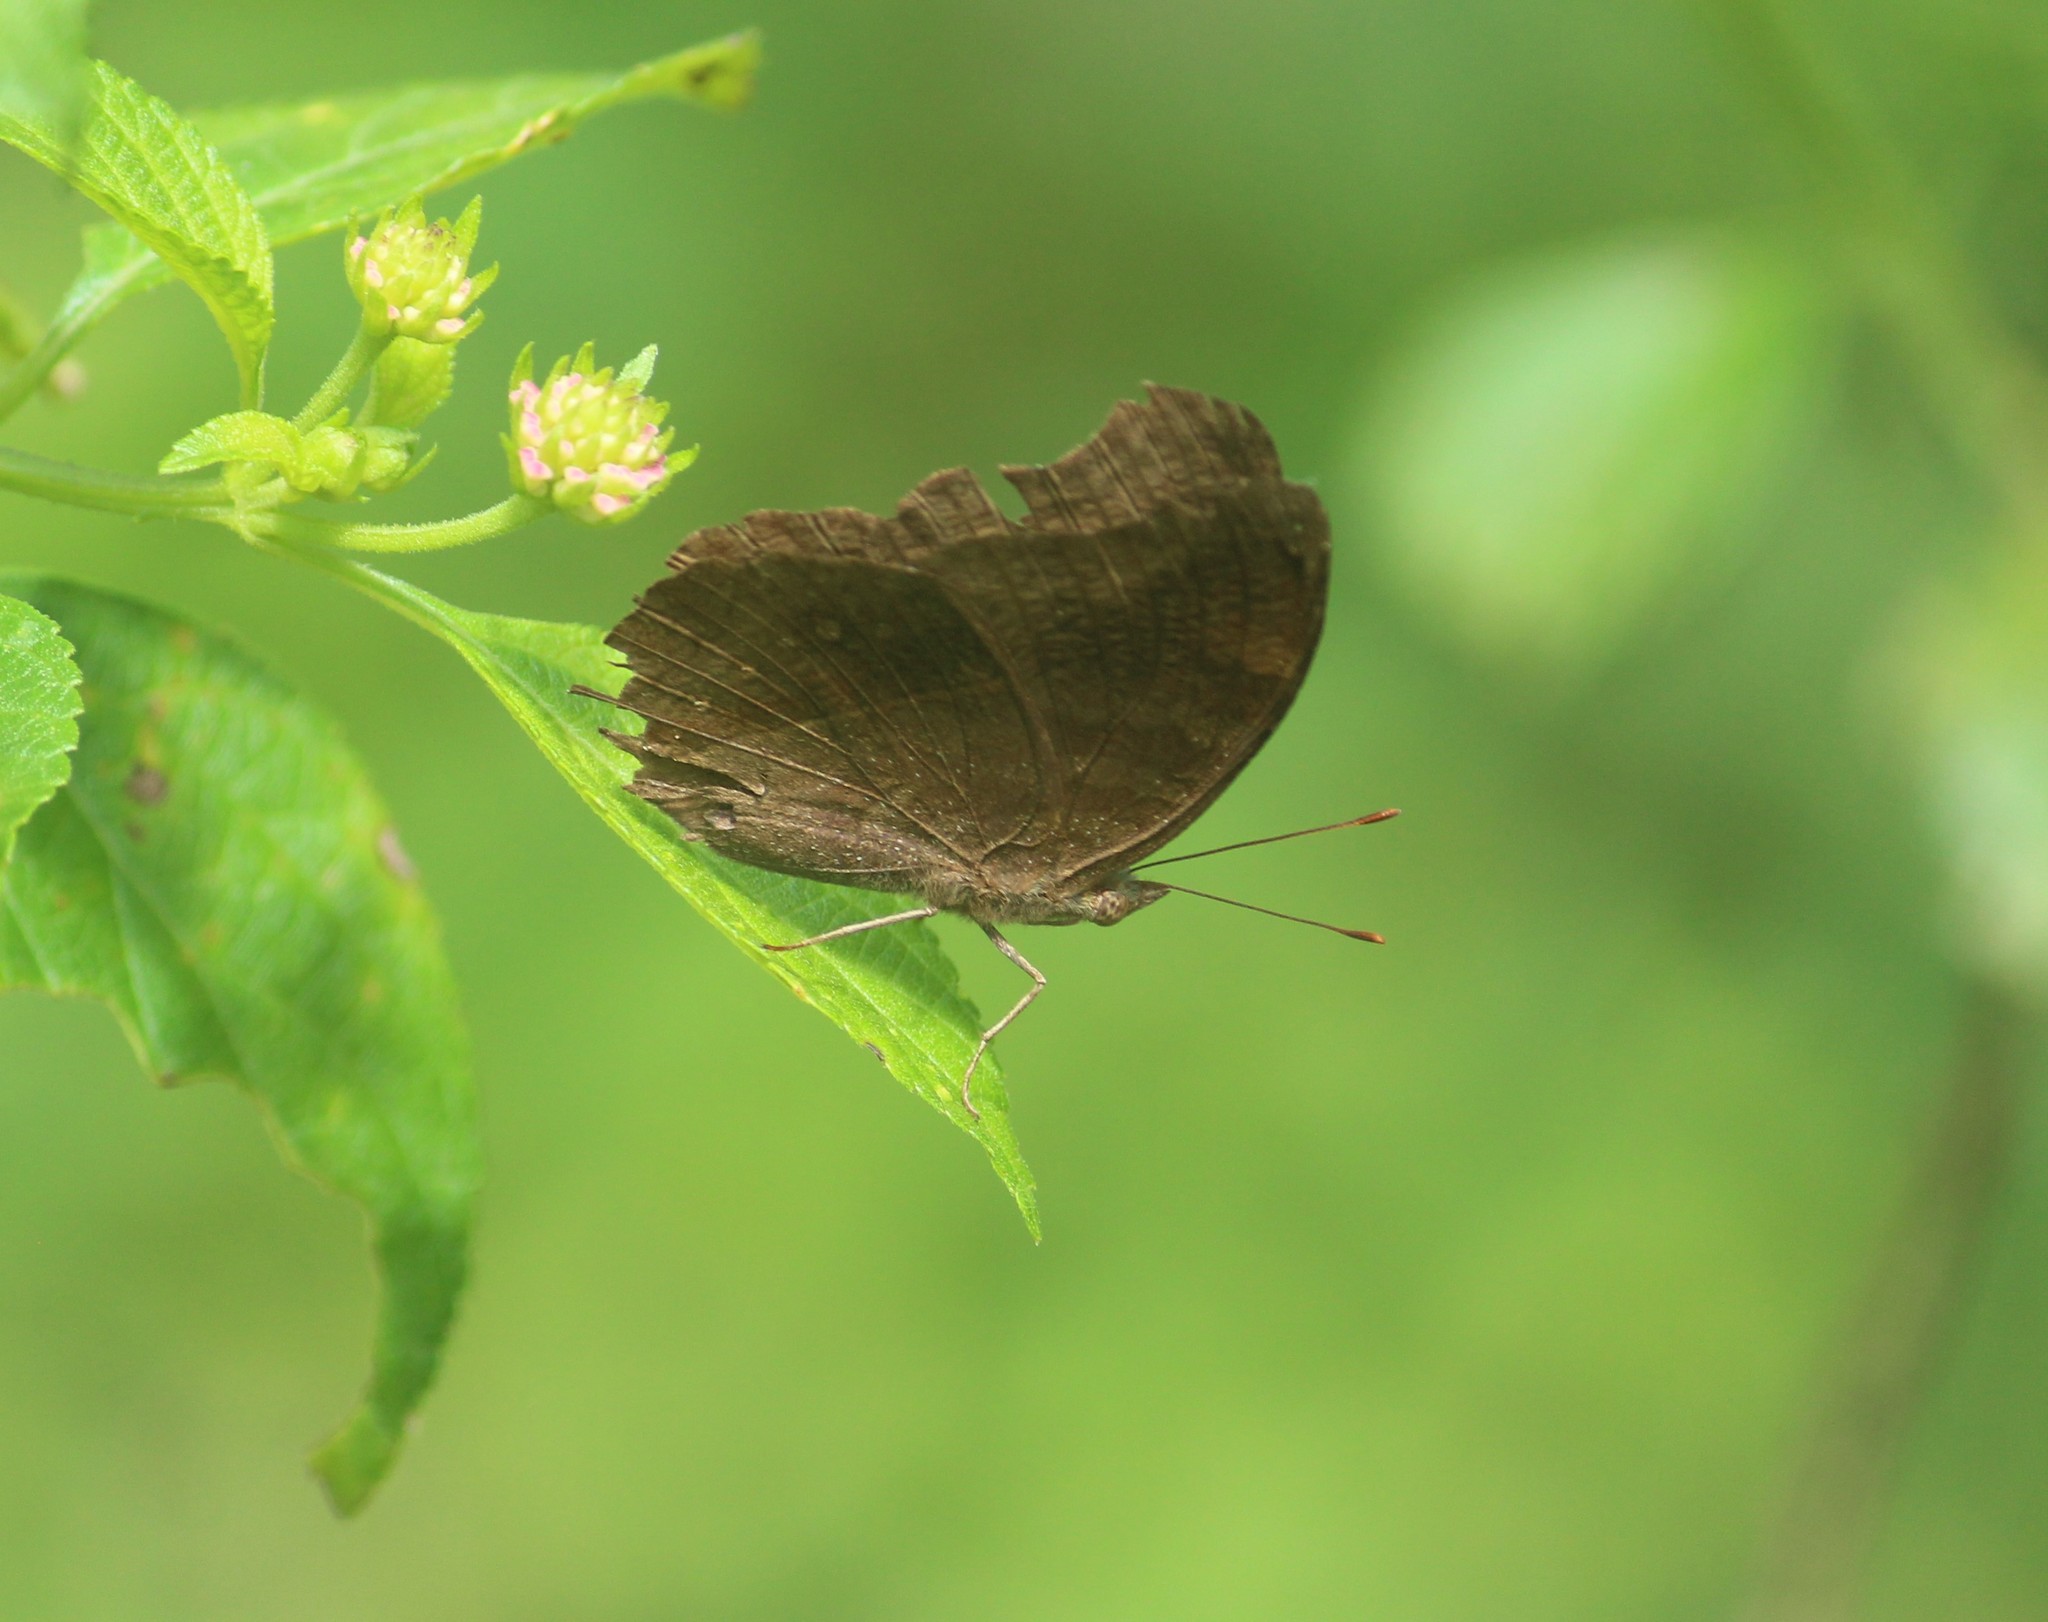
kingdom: Animalia
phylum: Arthropoda
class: Insecta
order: Lepidoptera
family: Nymphalidae
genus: Junonia
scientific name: Junonia iphita
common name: Chocolate pansy
